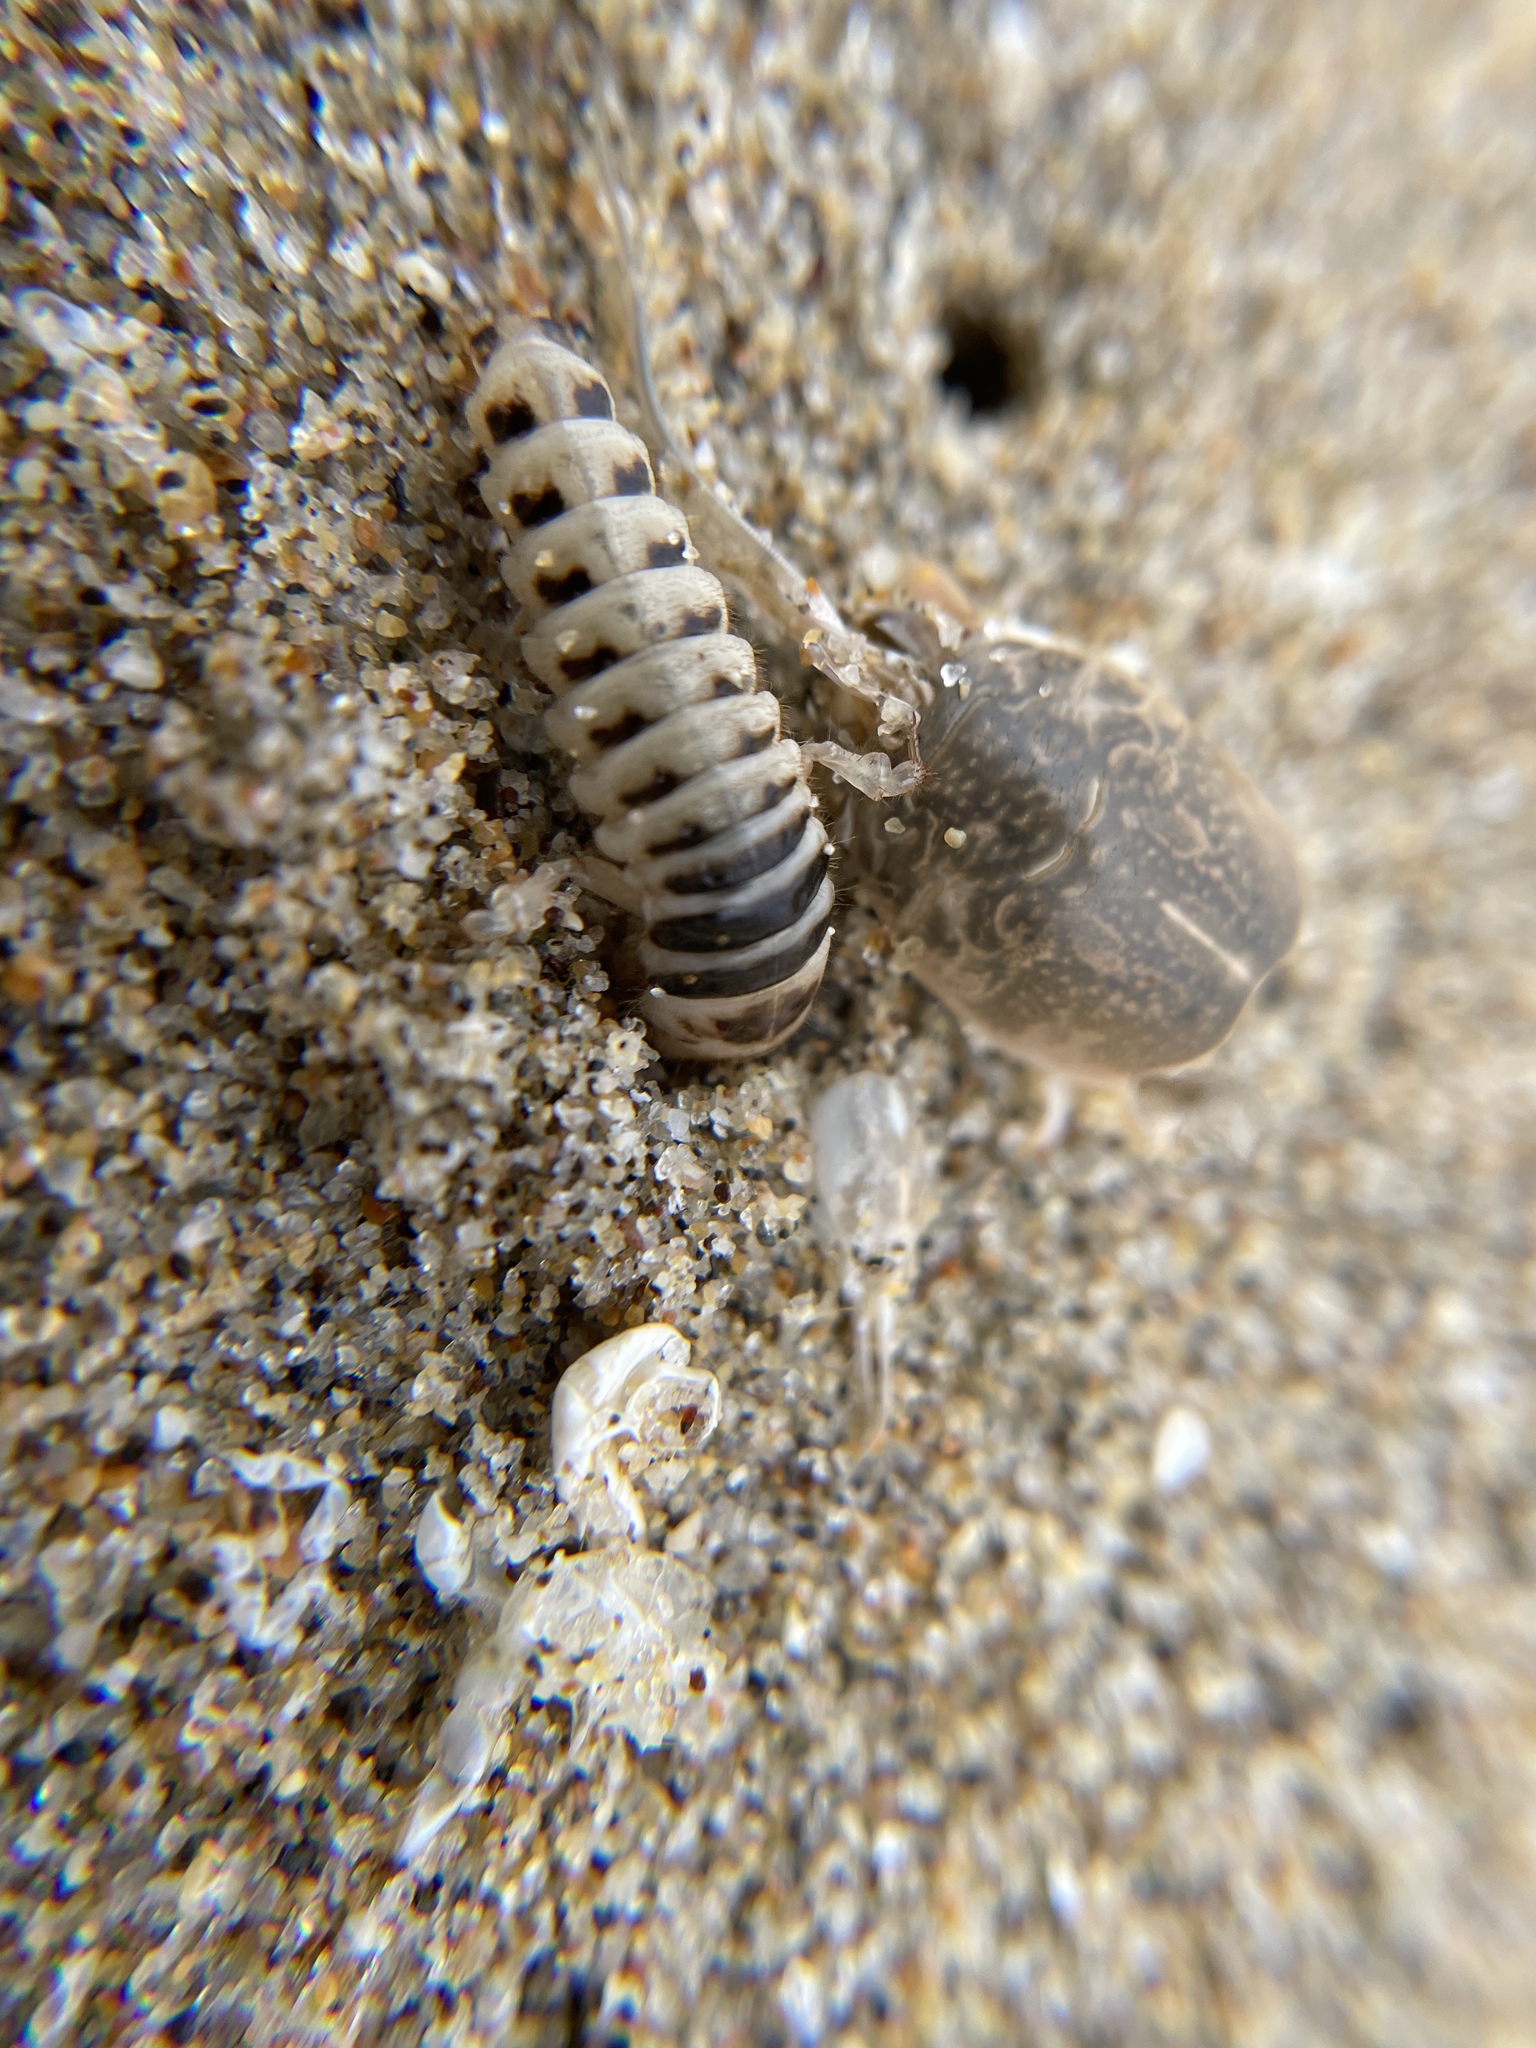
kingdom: Animalia
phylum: Arthropoda
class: Insecta
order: Coleoptera
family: Staphylinidae
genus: Thinopinus
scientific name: Thinopinus pictus
